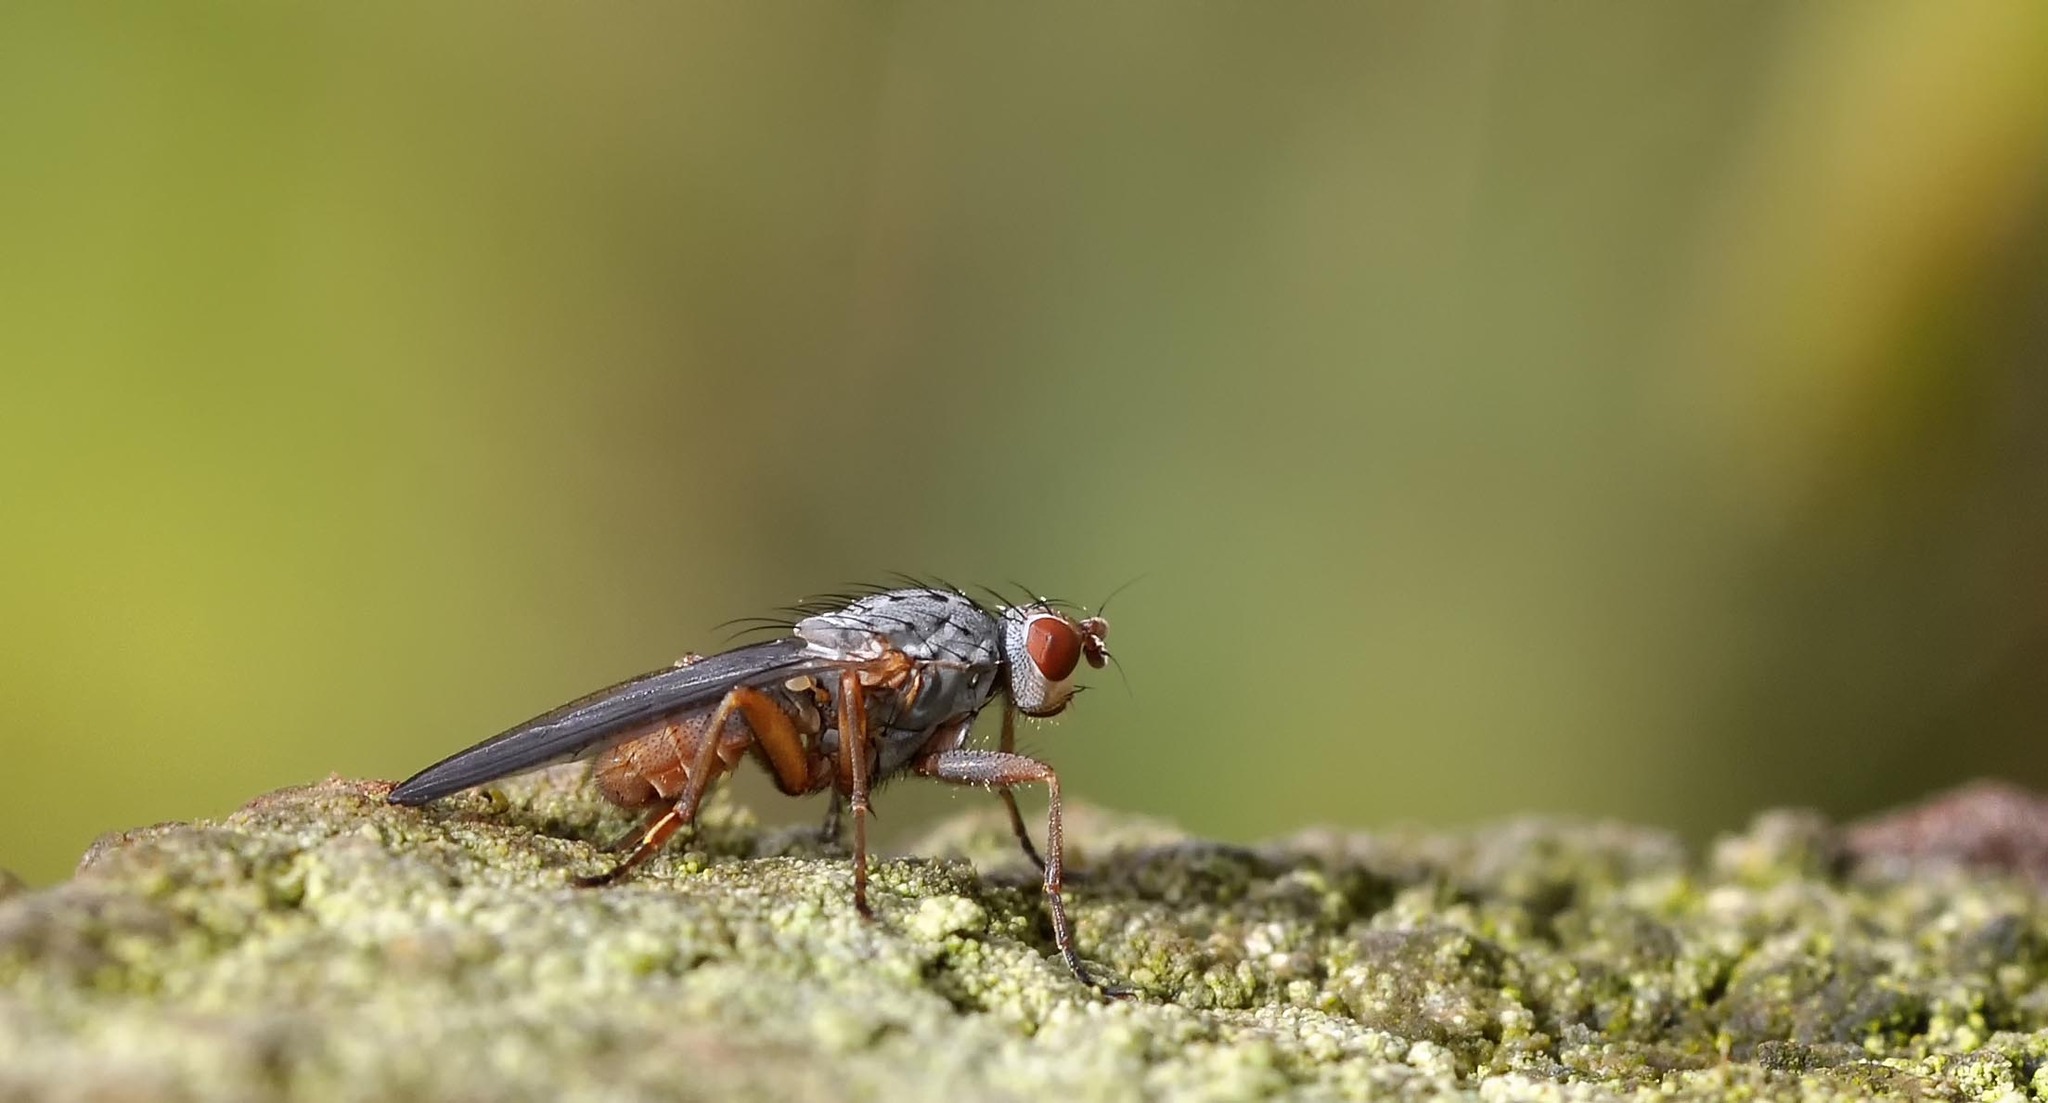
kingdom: Animalia
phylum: Arthropoda
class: Insecta
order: Diptera
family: Heleomyzidae
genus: Amoebaleria
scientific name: Amoebaleria caesia
